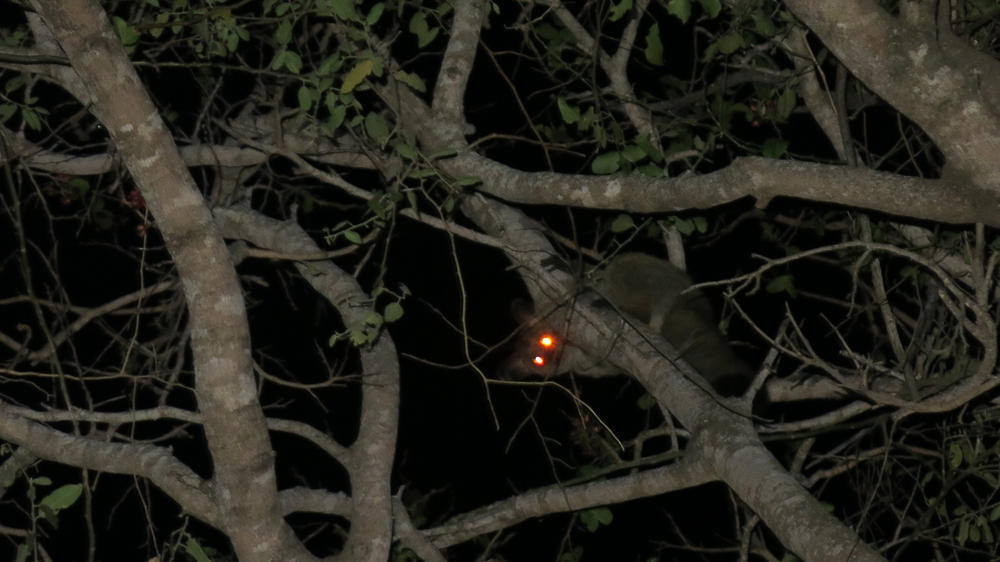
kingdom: Animalia
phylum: Chordata
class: Mammalia
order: Primates
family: Galagidae
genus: Otolemur
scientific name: Otolemur crassicaudatus
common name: Brown greater galago
